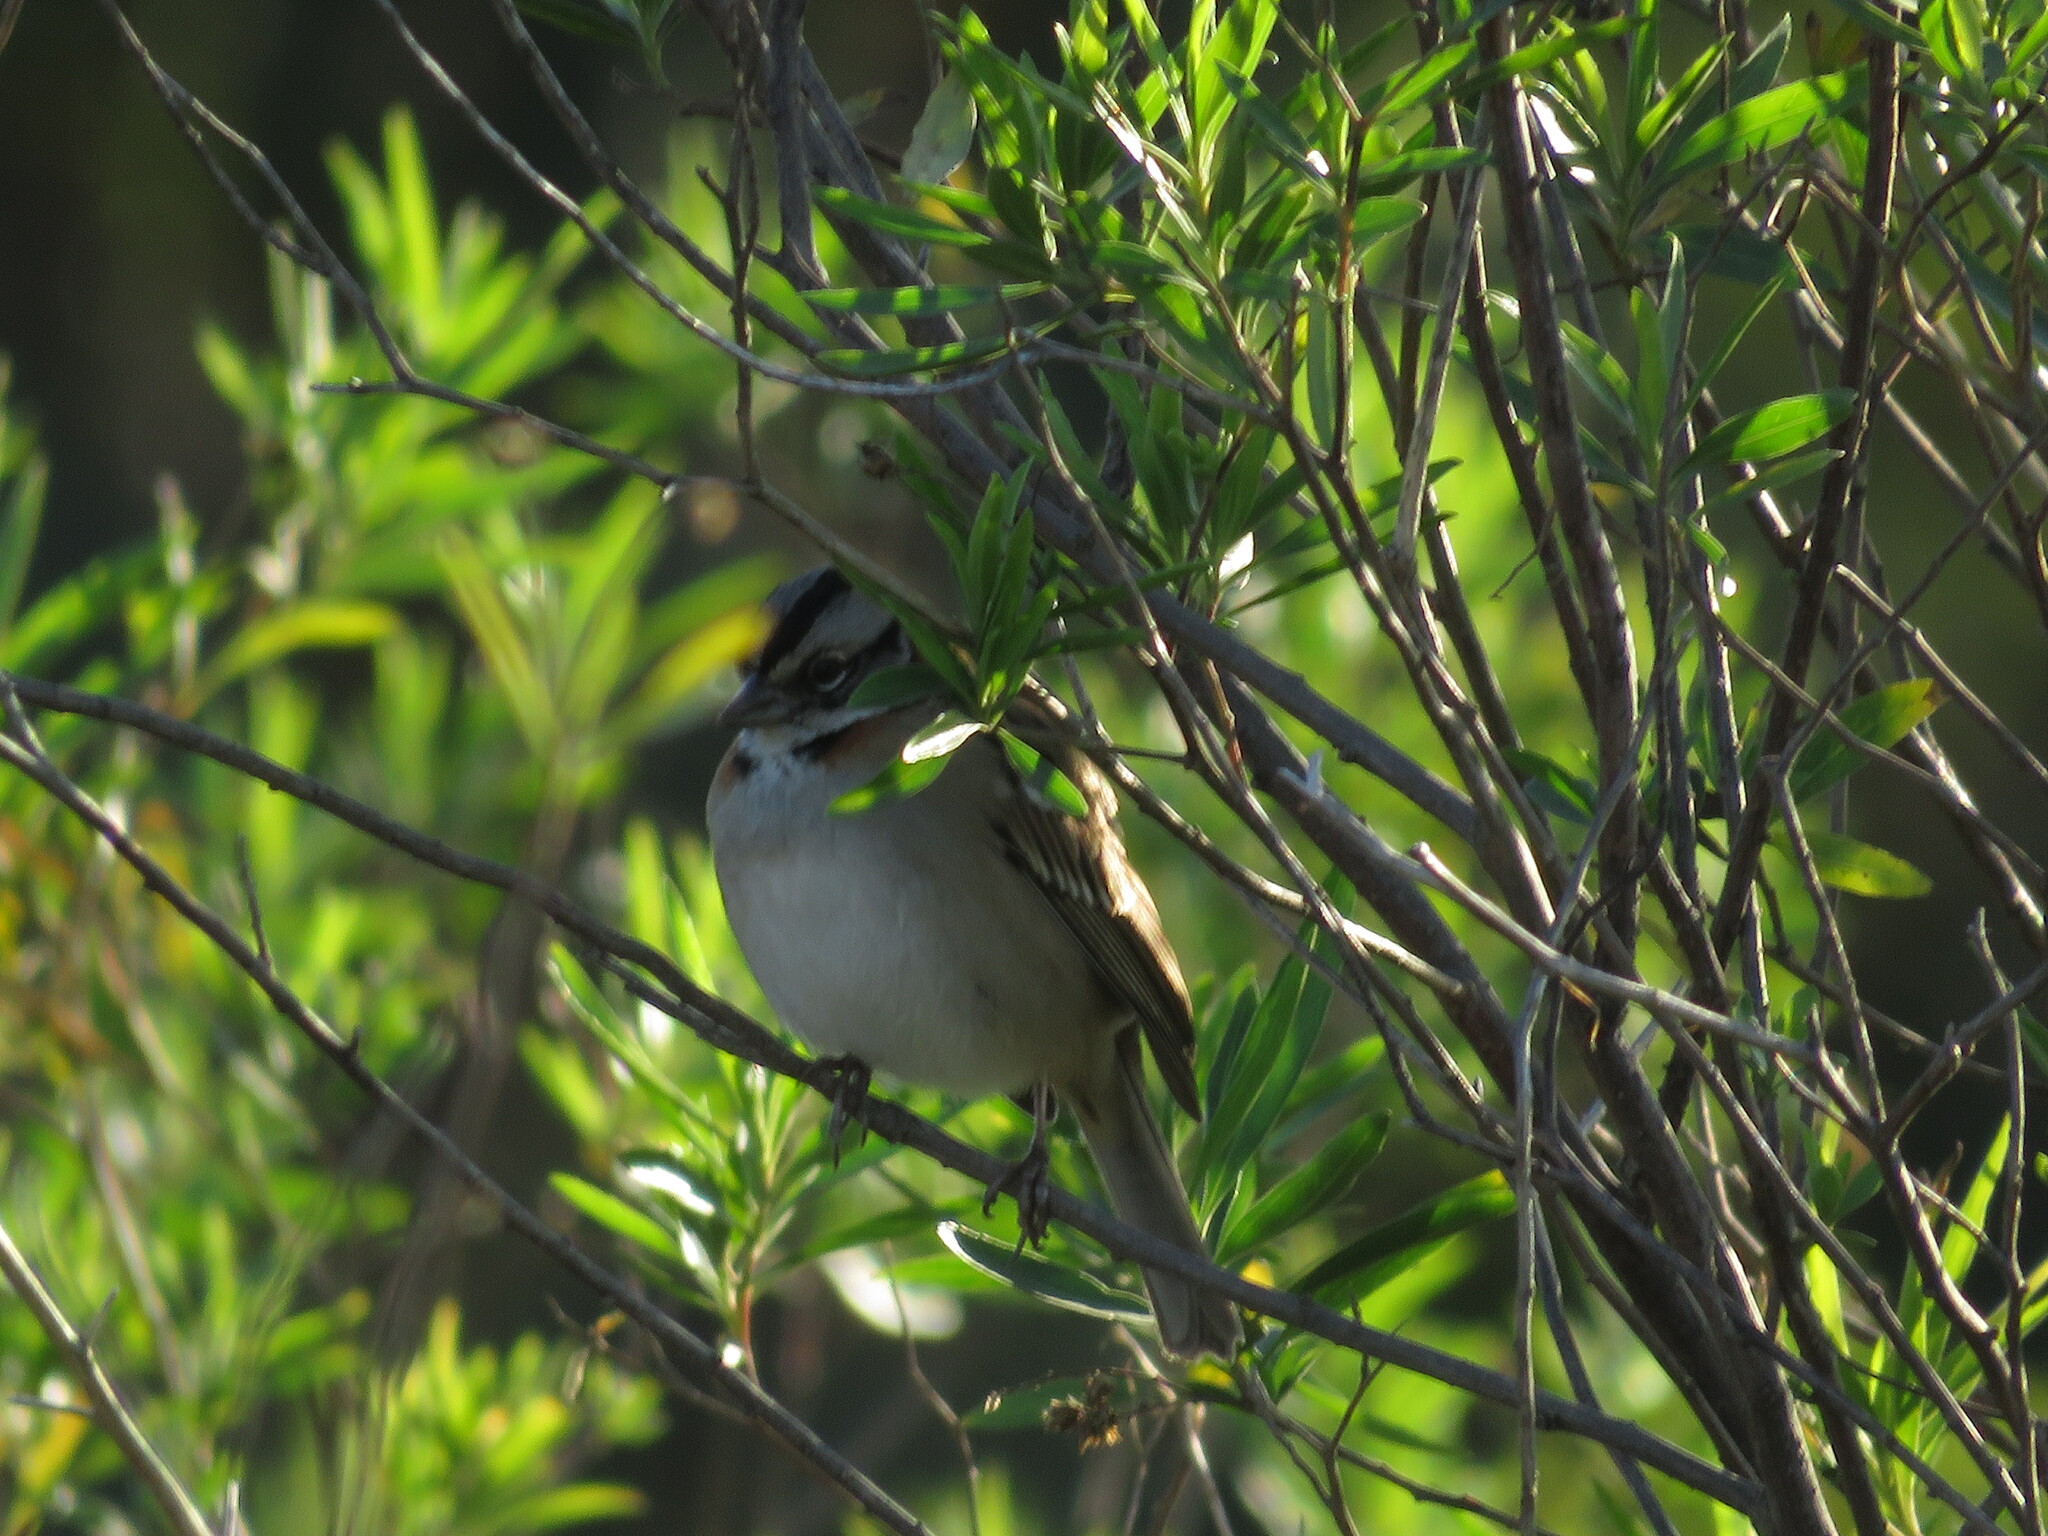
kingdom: Animalia
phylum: Chordata
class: Aves
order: Passeriformes
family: Passerellidae
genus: Zonotrichia
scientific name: Zonotrichia capensis
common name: Rufous-collared sparrow
